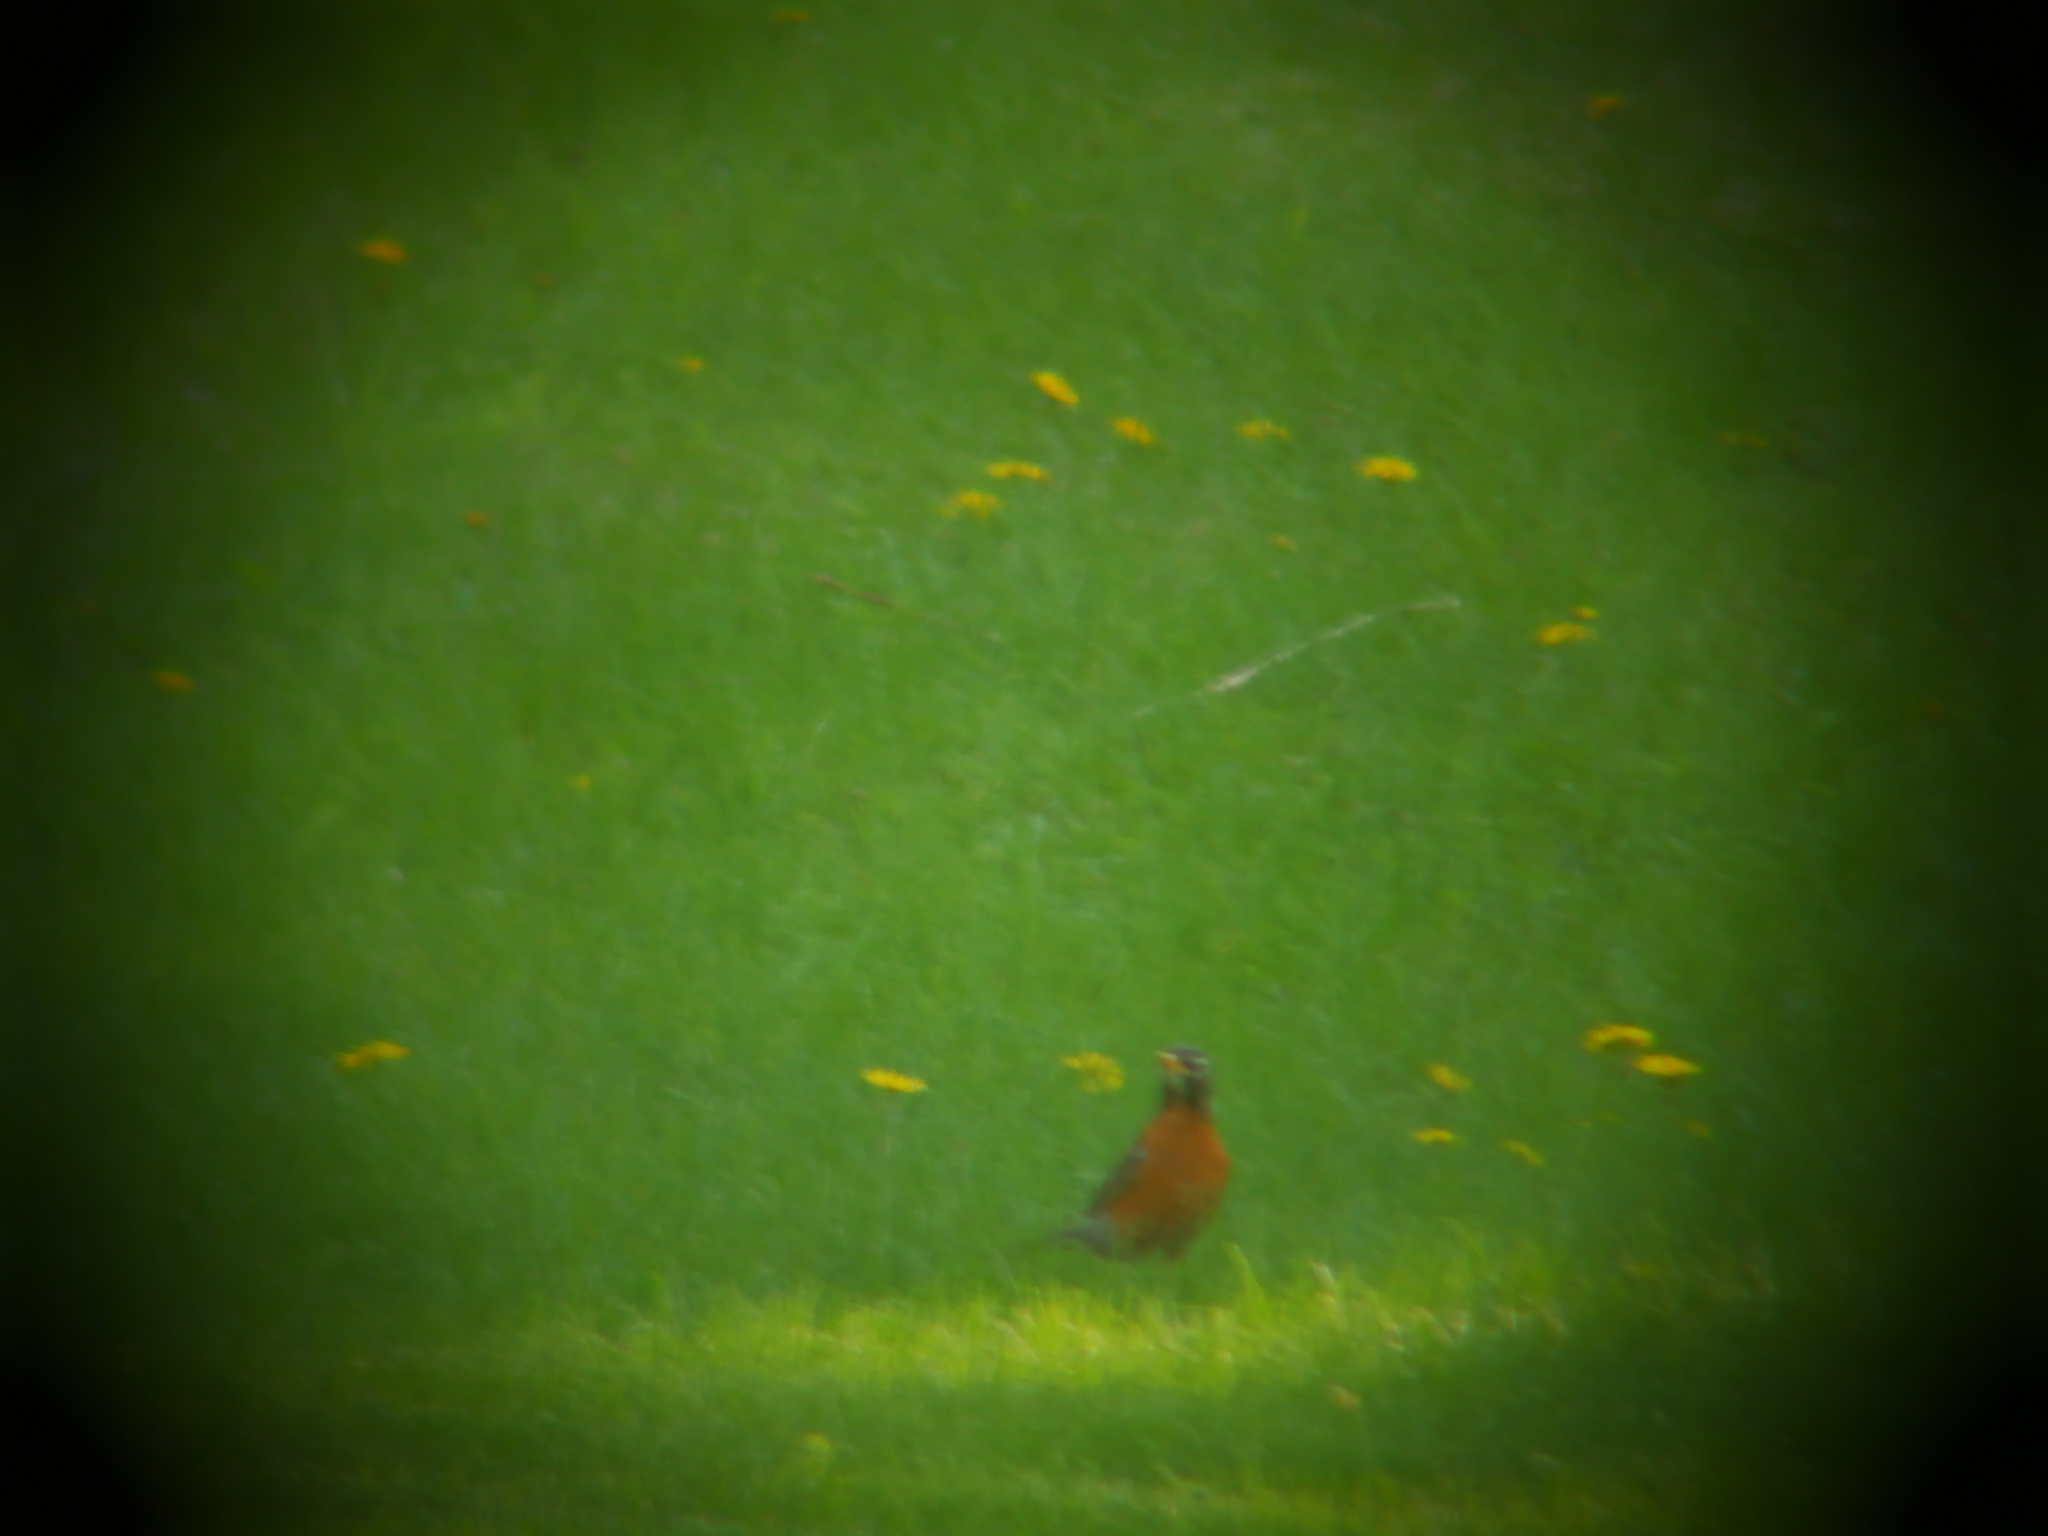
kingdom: Animalia
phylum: Chordata
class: Aves
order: Passeriformes
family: Turdidae
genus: Turdus
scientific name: Turdus migratorius
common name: American robin
